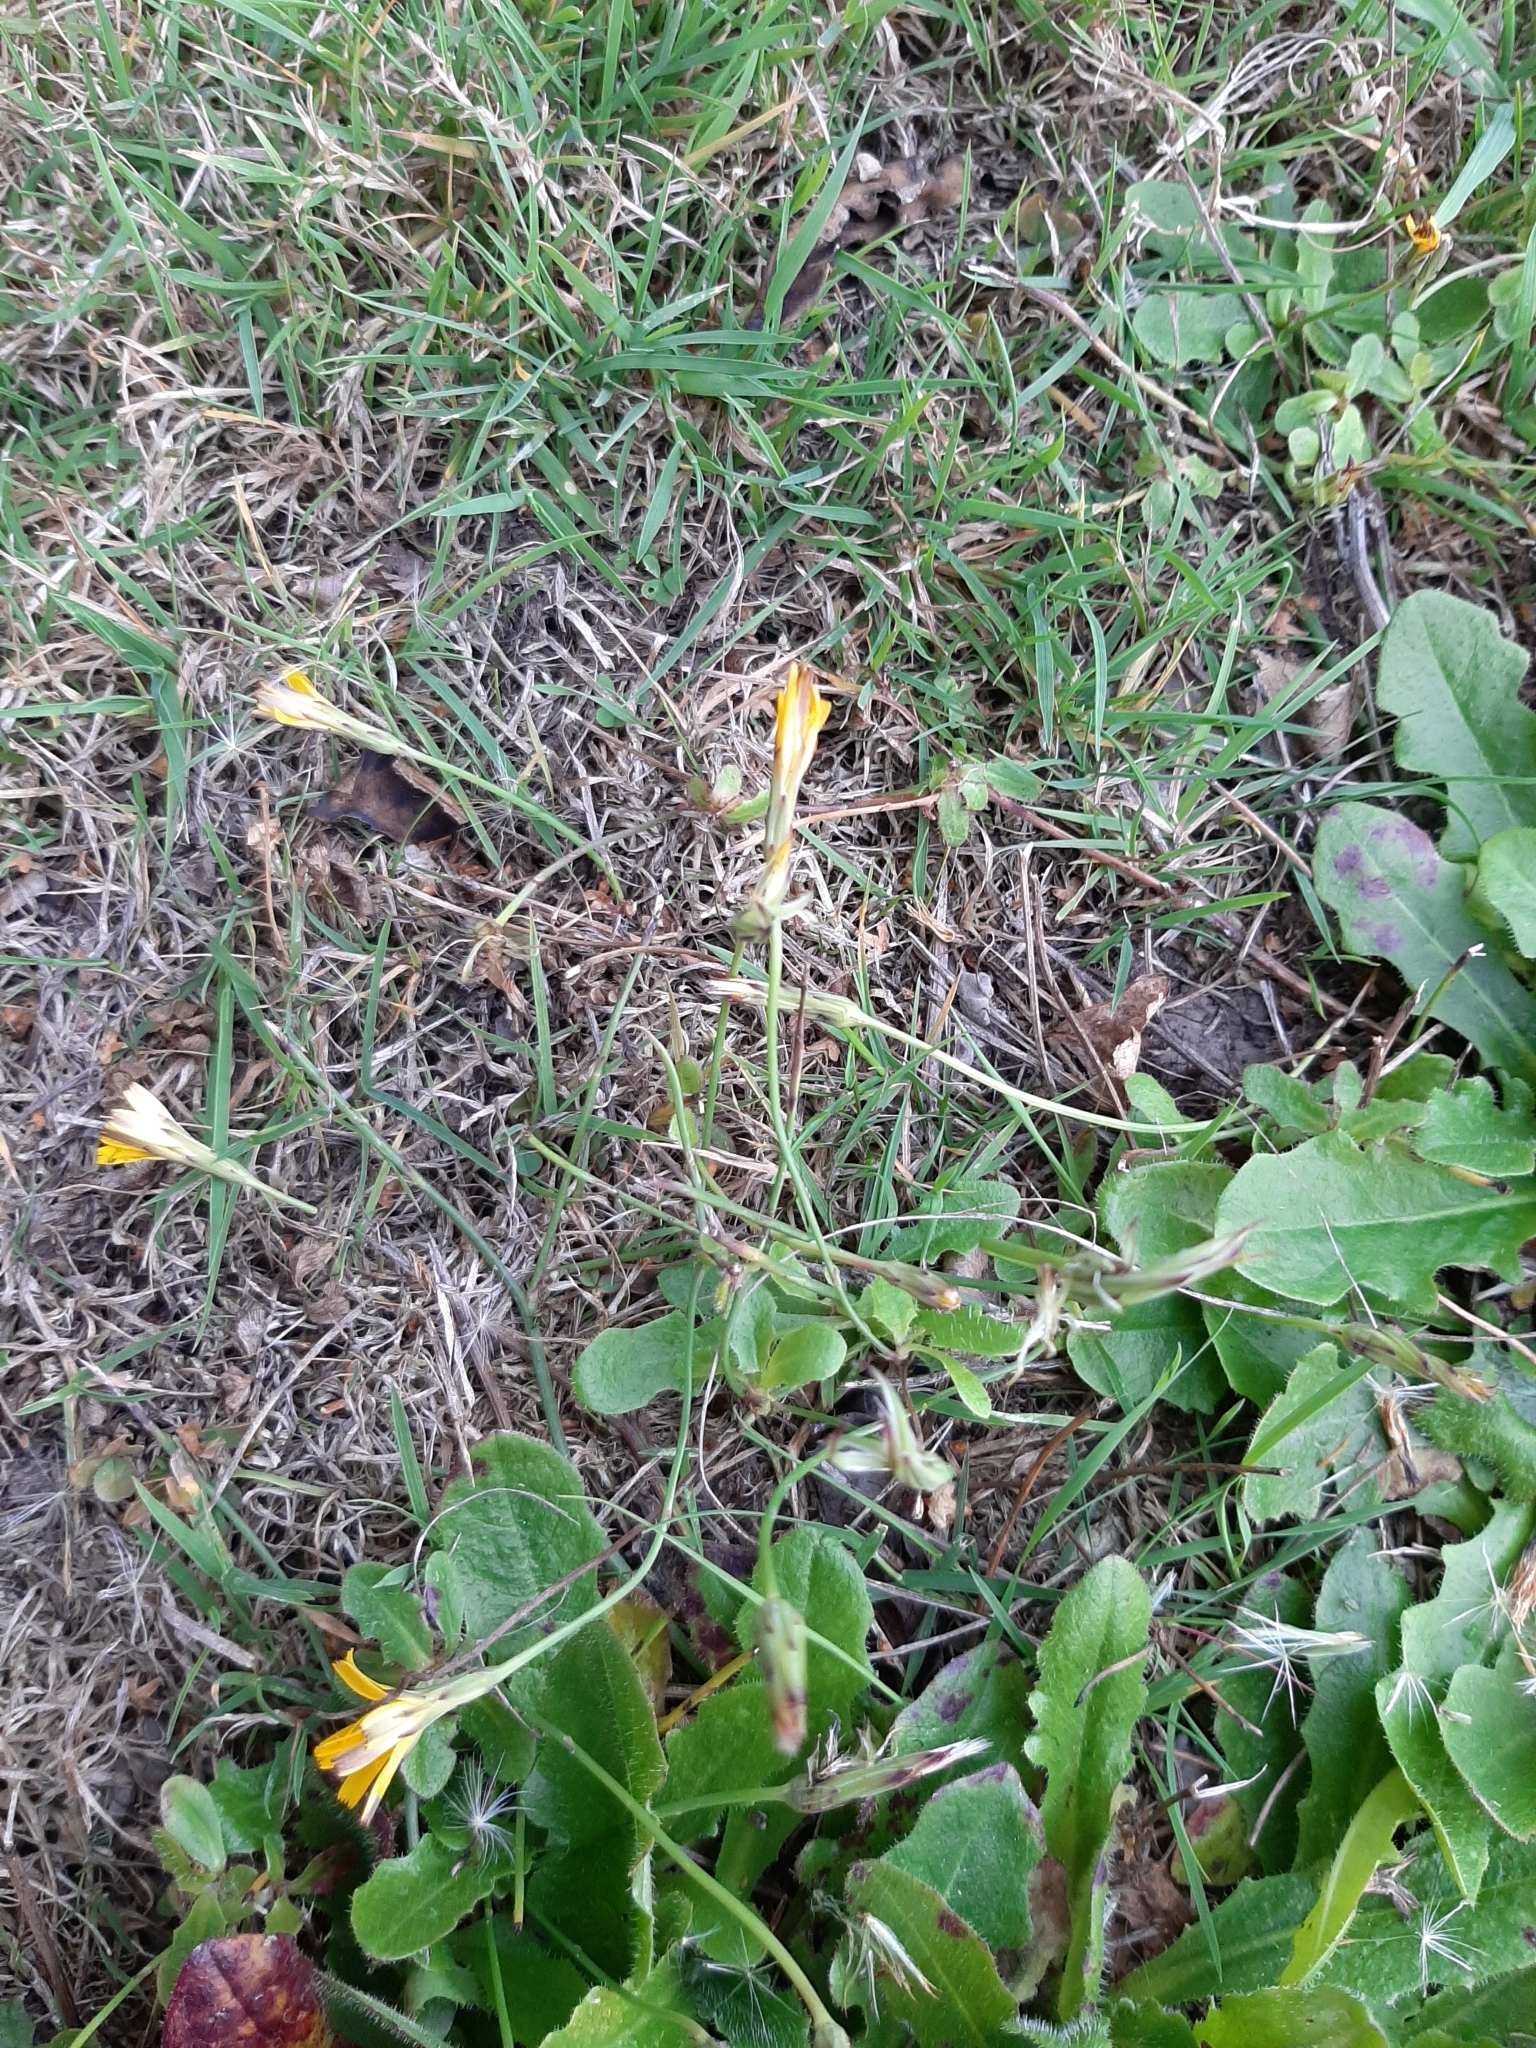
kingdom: Plantae
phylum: Tracheophyta
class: Magnoliopsida
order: Asterales
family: Asteraceae
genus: Hypochaeris
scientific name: Hypochaeris radicata
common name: Flatweed
